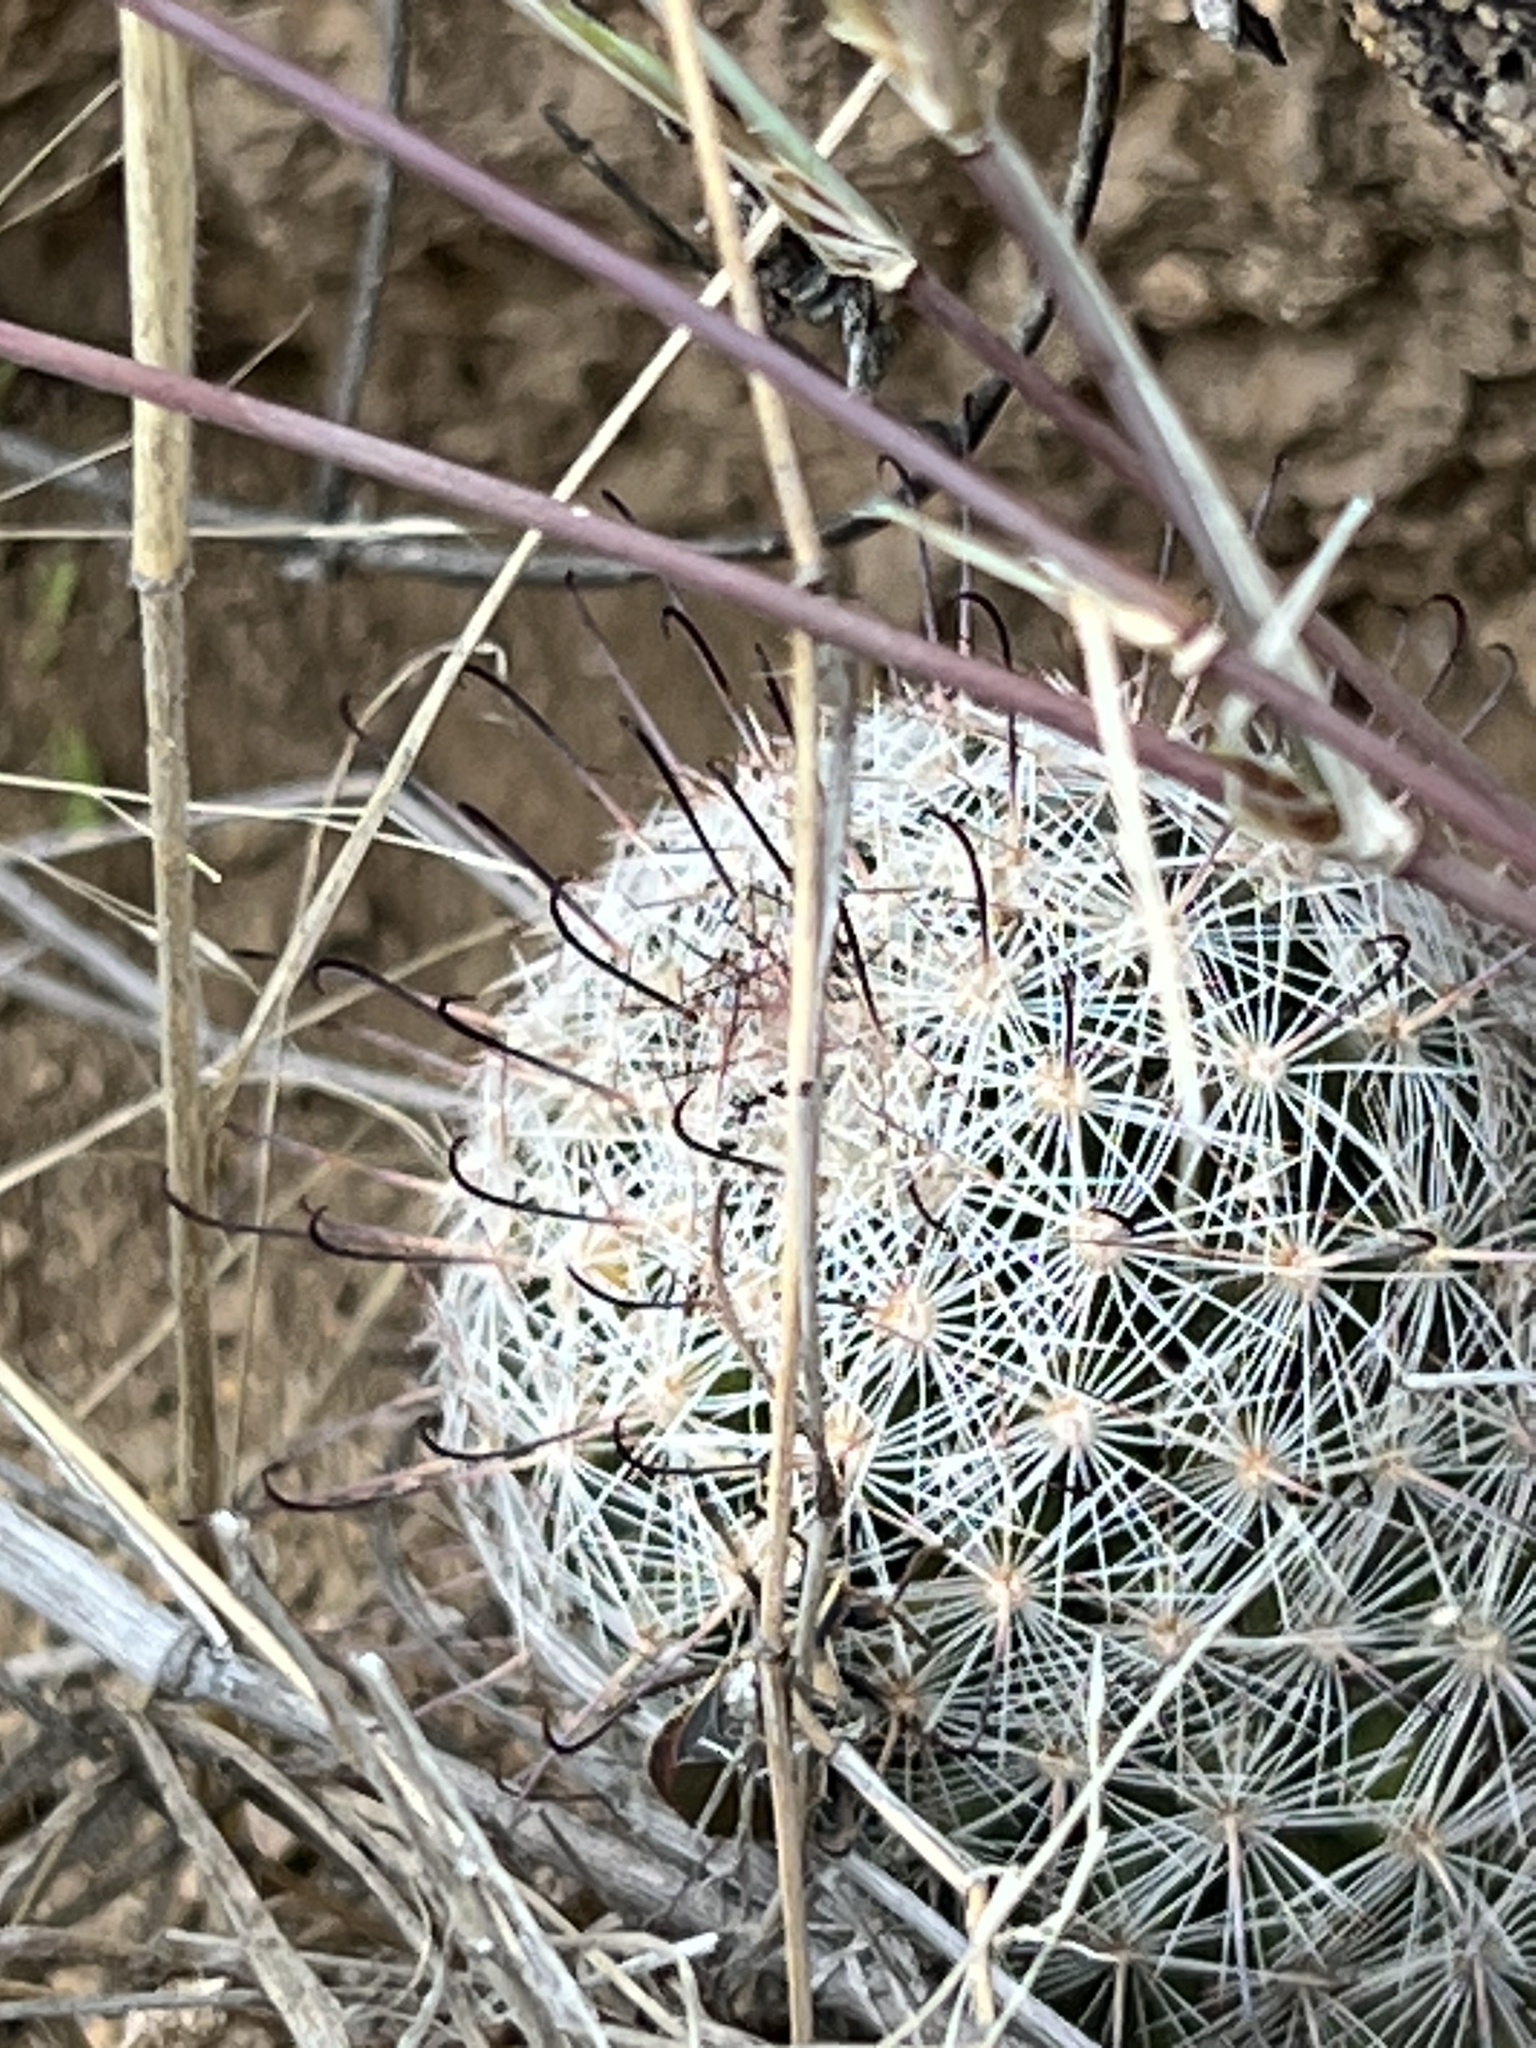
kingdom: Plantae
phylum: Tracheophyta
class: Magnoliopsida
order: Caryophyllales
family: Cactaceae
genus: Cochemiea
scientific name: Cochemiea grahamii
